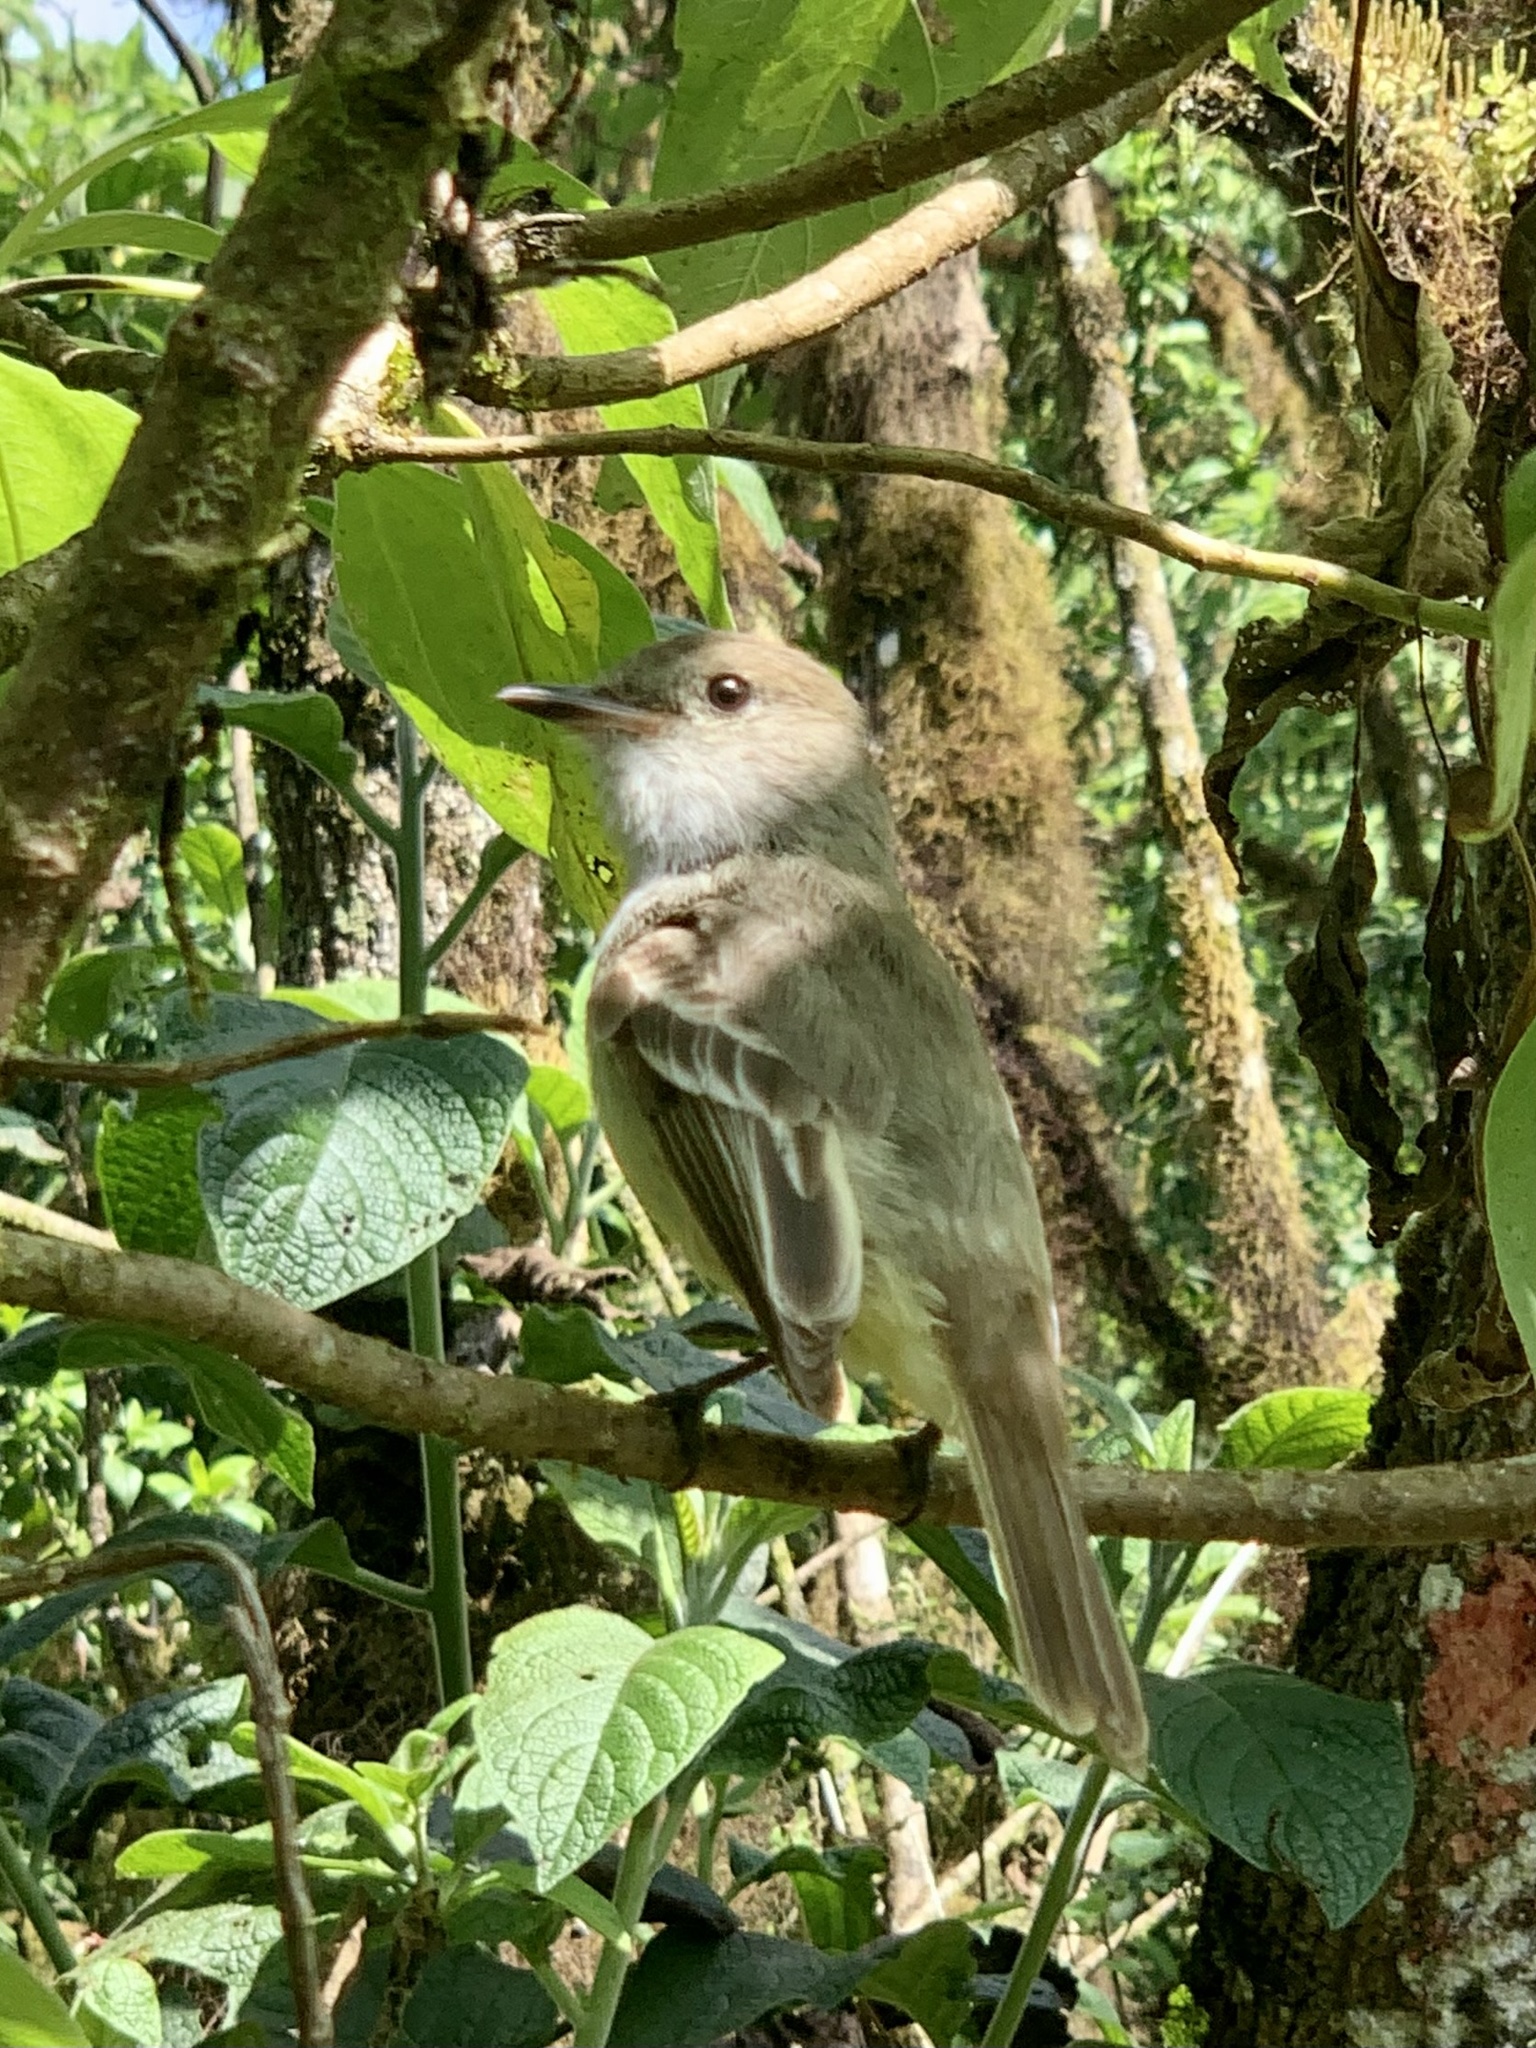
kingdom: Animalia
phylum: Chordata
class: Aves
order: Passeriformes
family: Tyrannidae
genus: Myiarchus
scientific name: Myiarchus magnirostris
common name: Galapagos flycatcher
